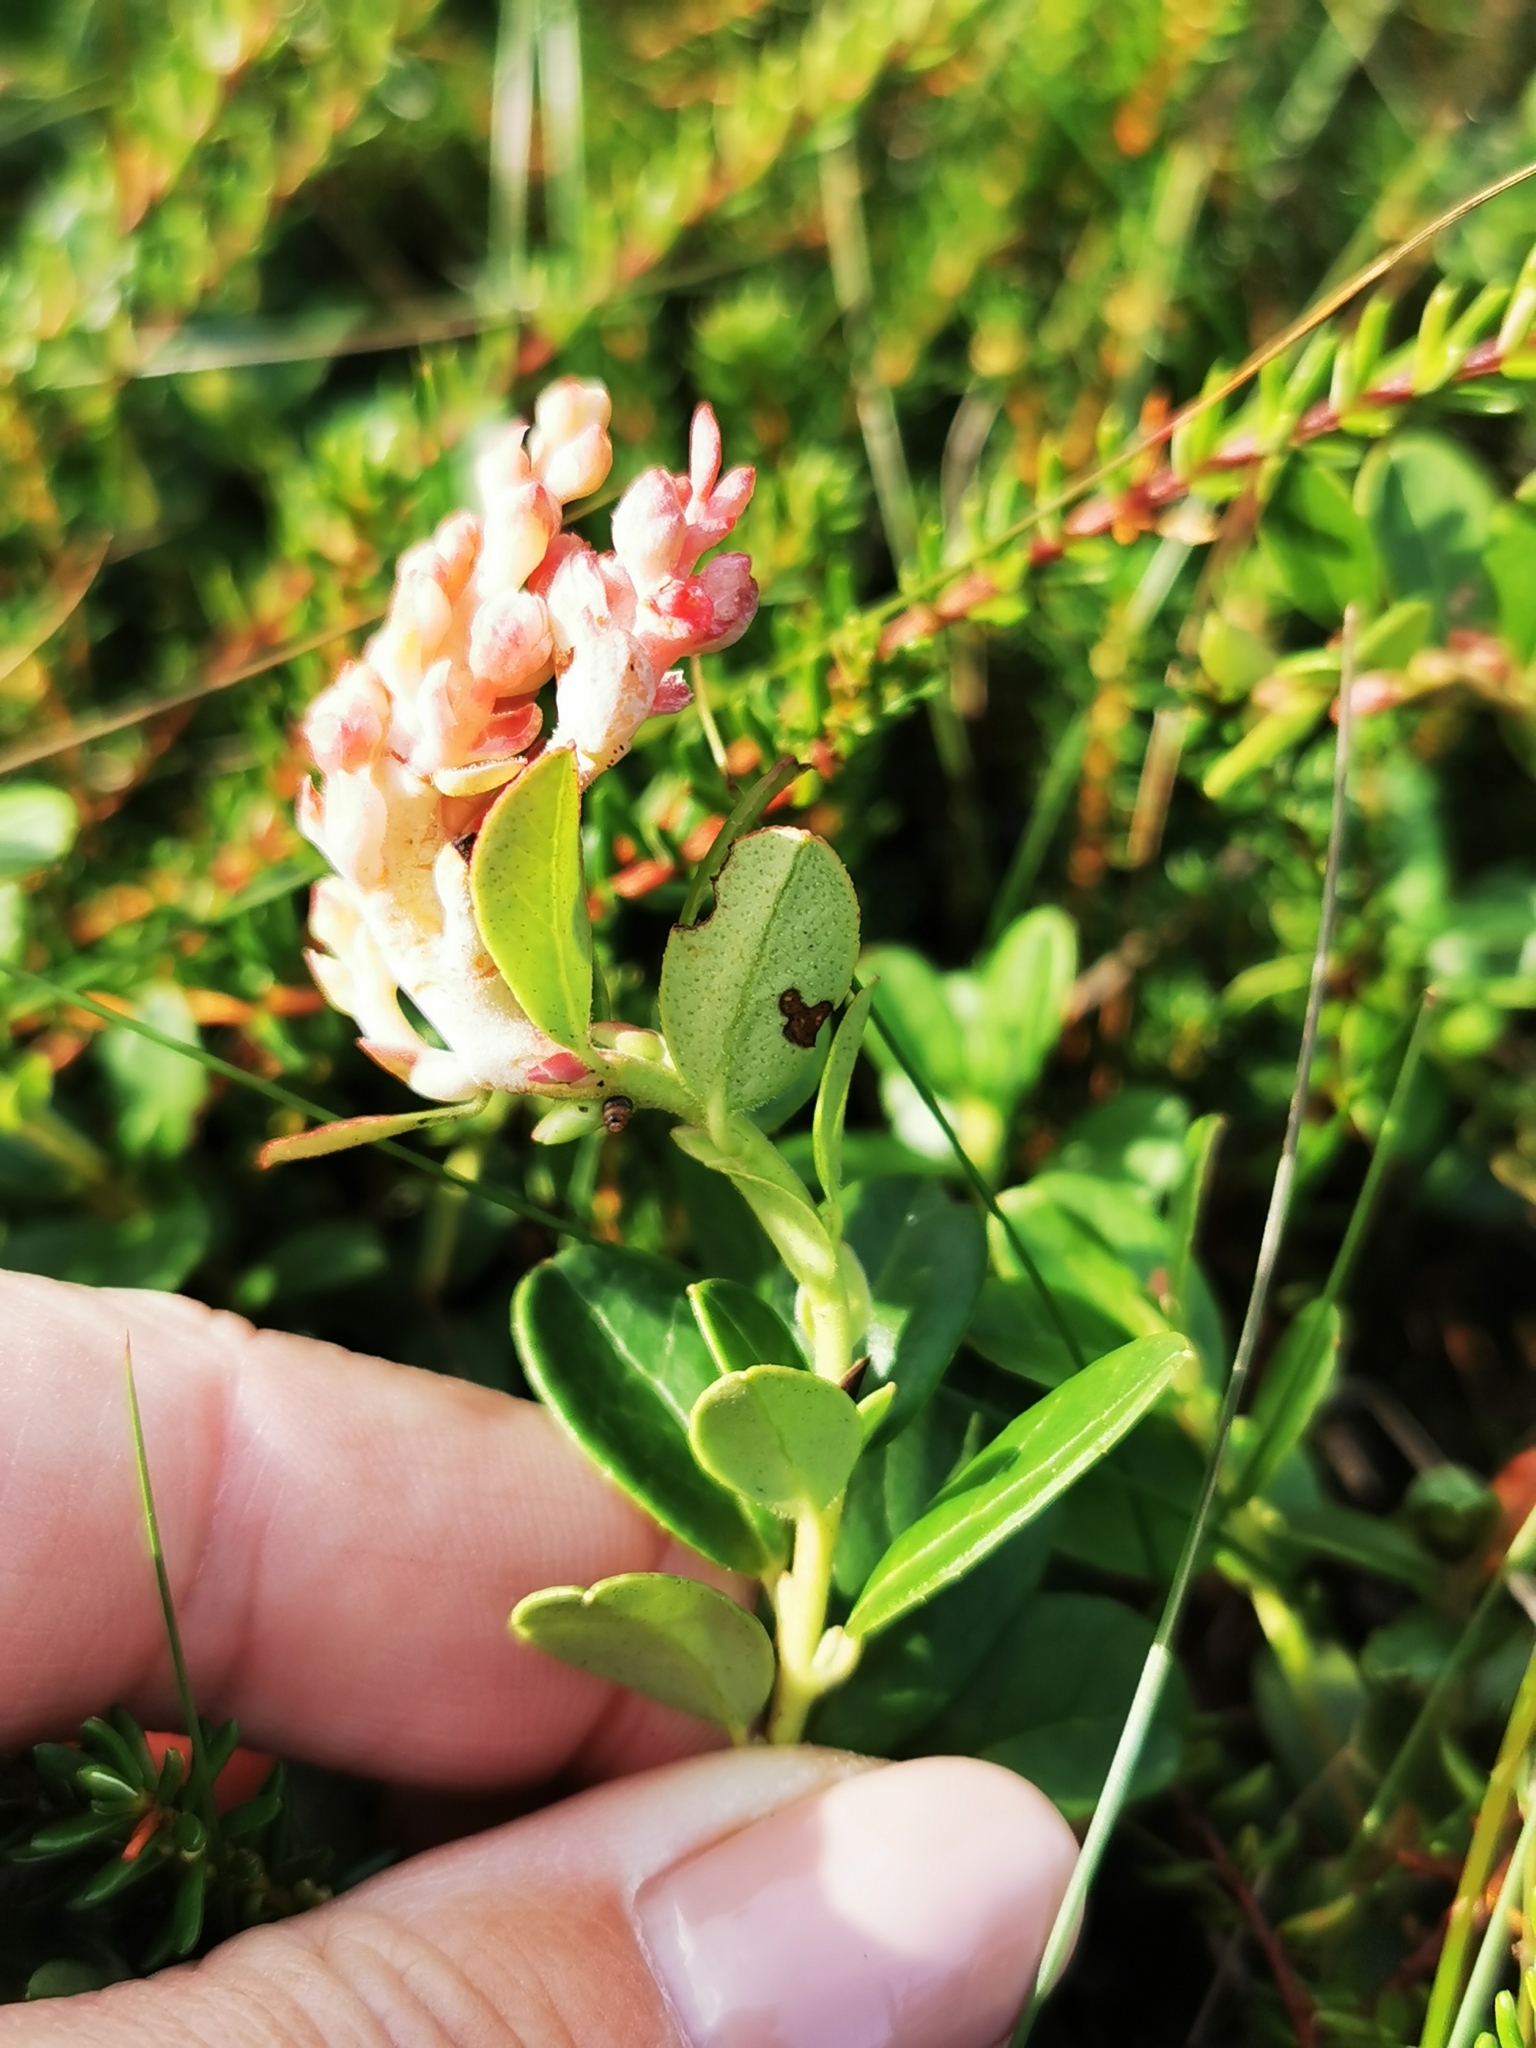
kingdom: Plantae
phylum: Tracheophyta
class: Magnoliopsida
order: Ericales
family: Ericaceae
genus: Vaccinium
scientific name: Vaccinium vitis-idaea
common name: Cowberry
